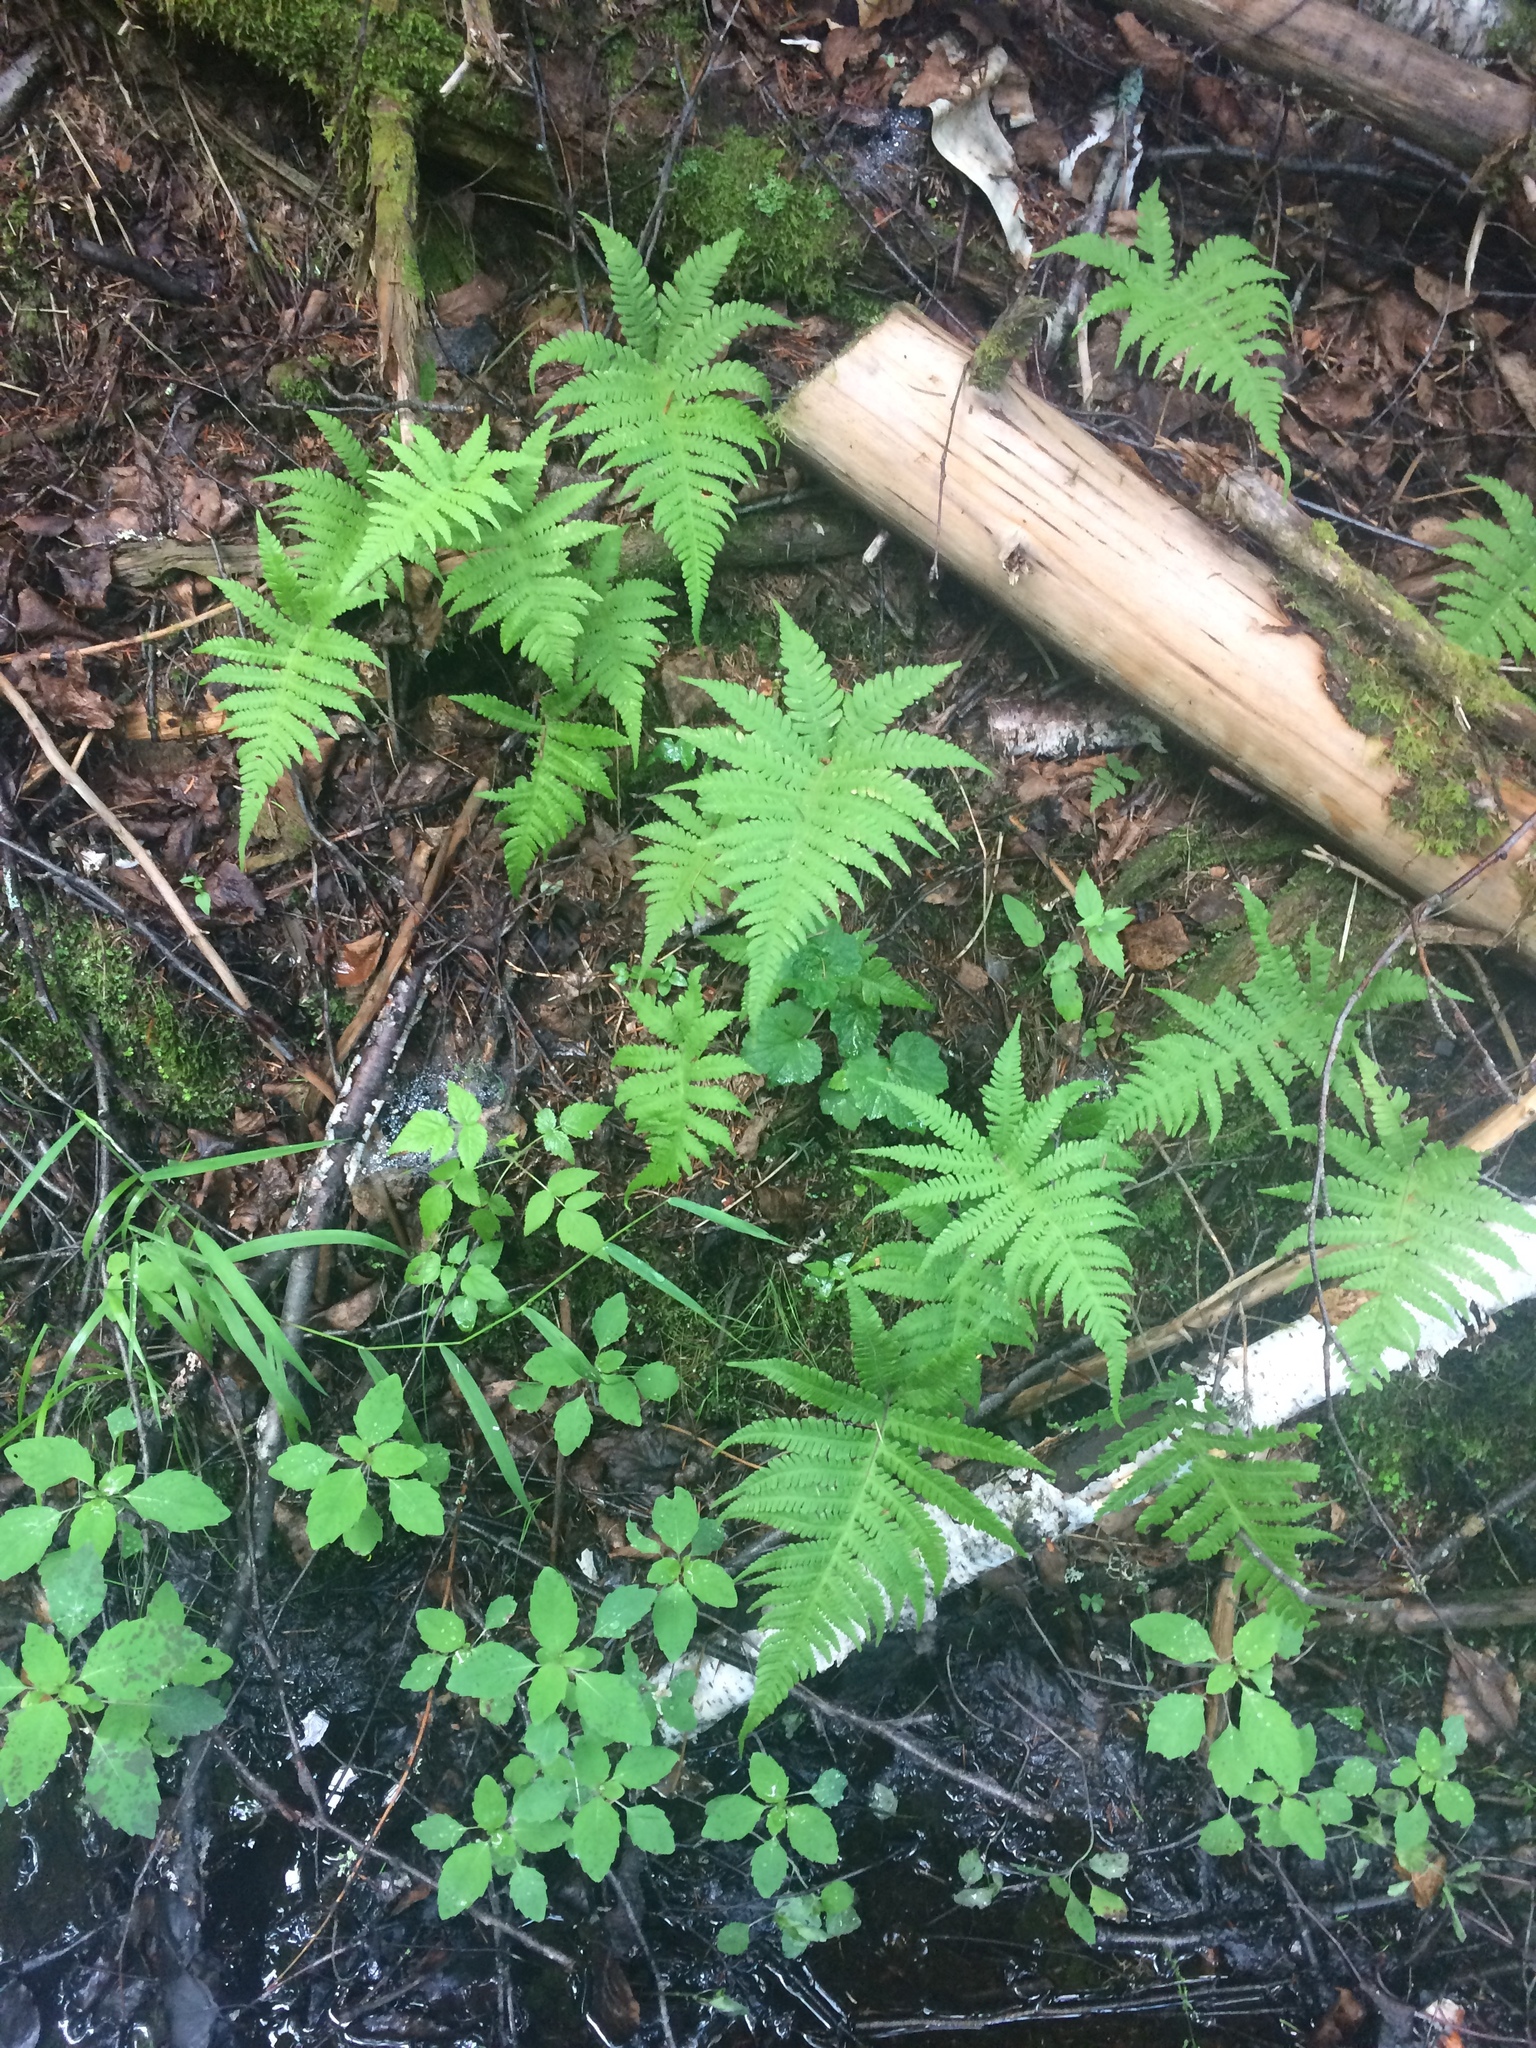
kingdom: Plantae
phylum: Tracheophyta
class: Polypodiopsida
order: Polypodiales
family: Thelypteridaceae
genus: Phegopteris
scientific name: Phegopteris connectilis
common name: Beech fern
